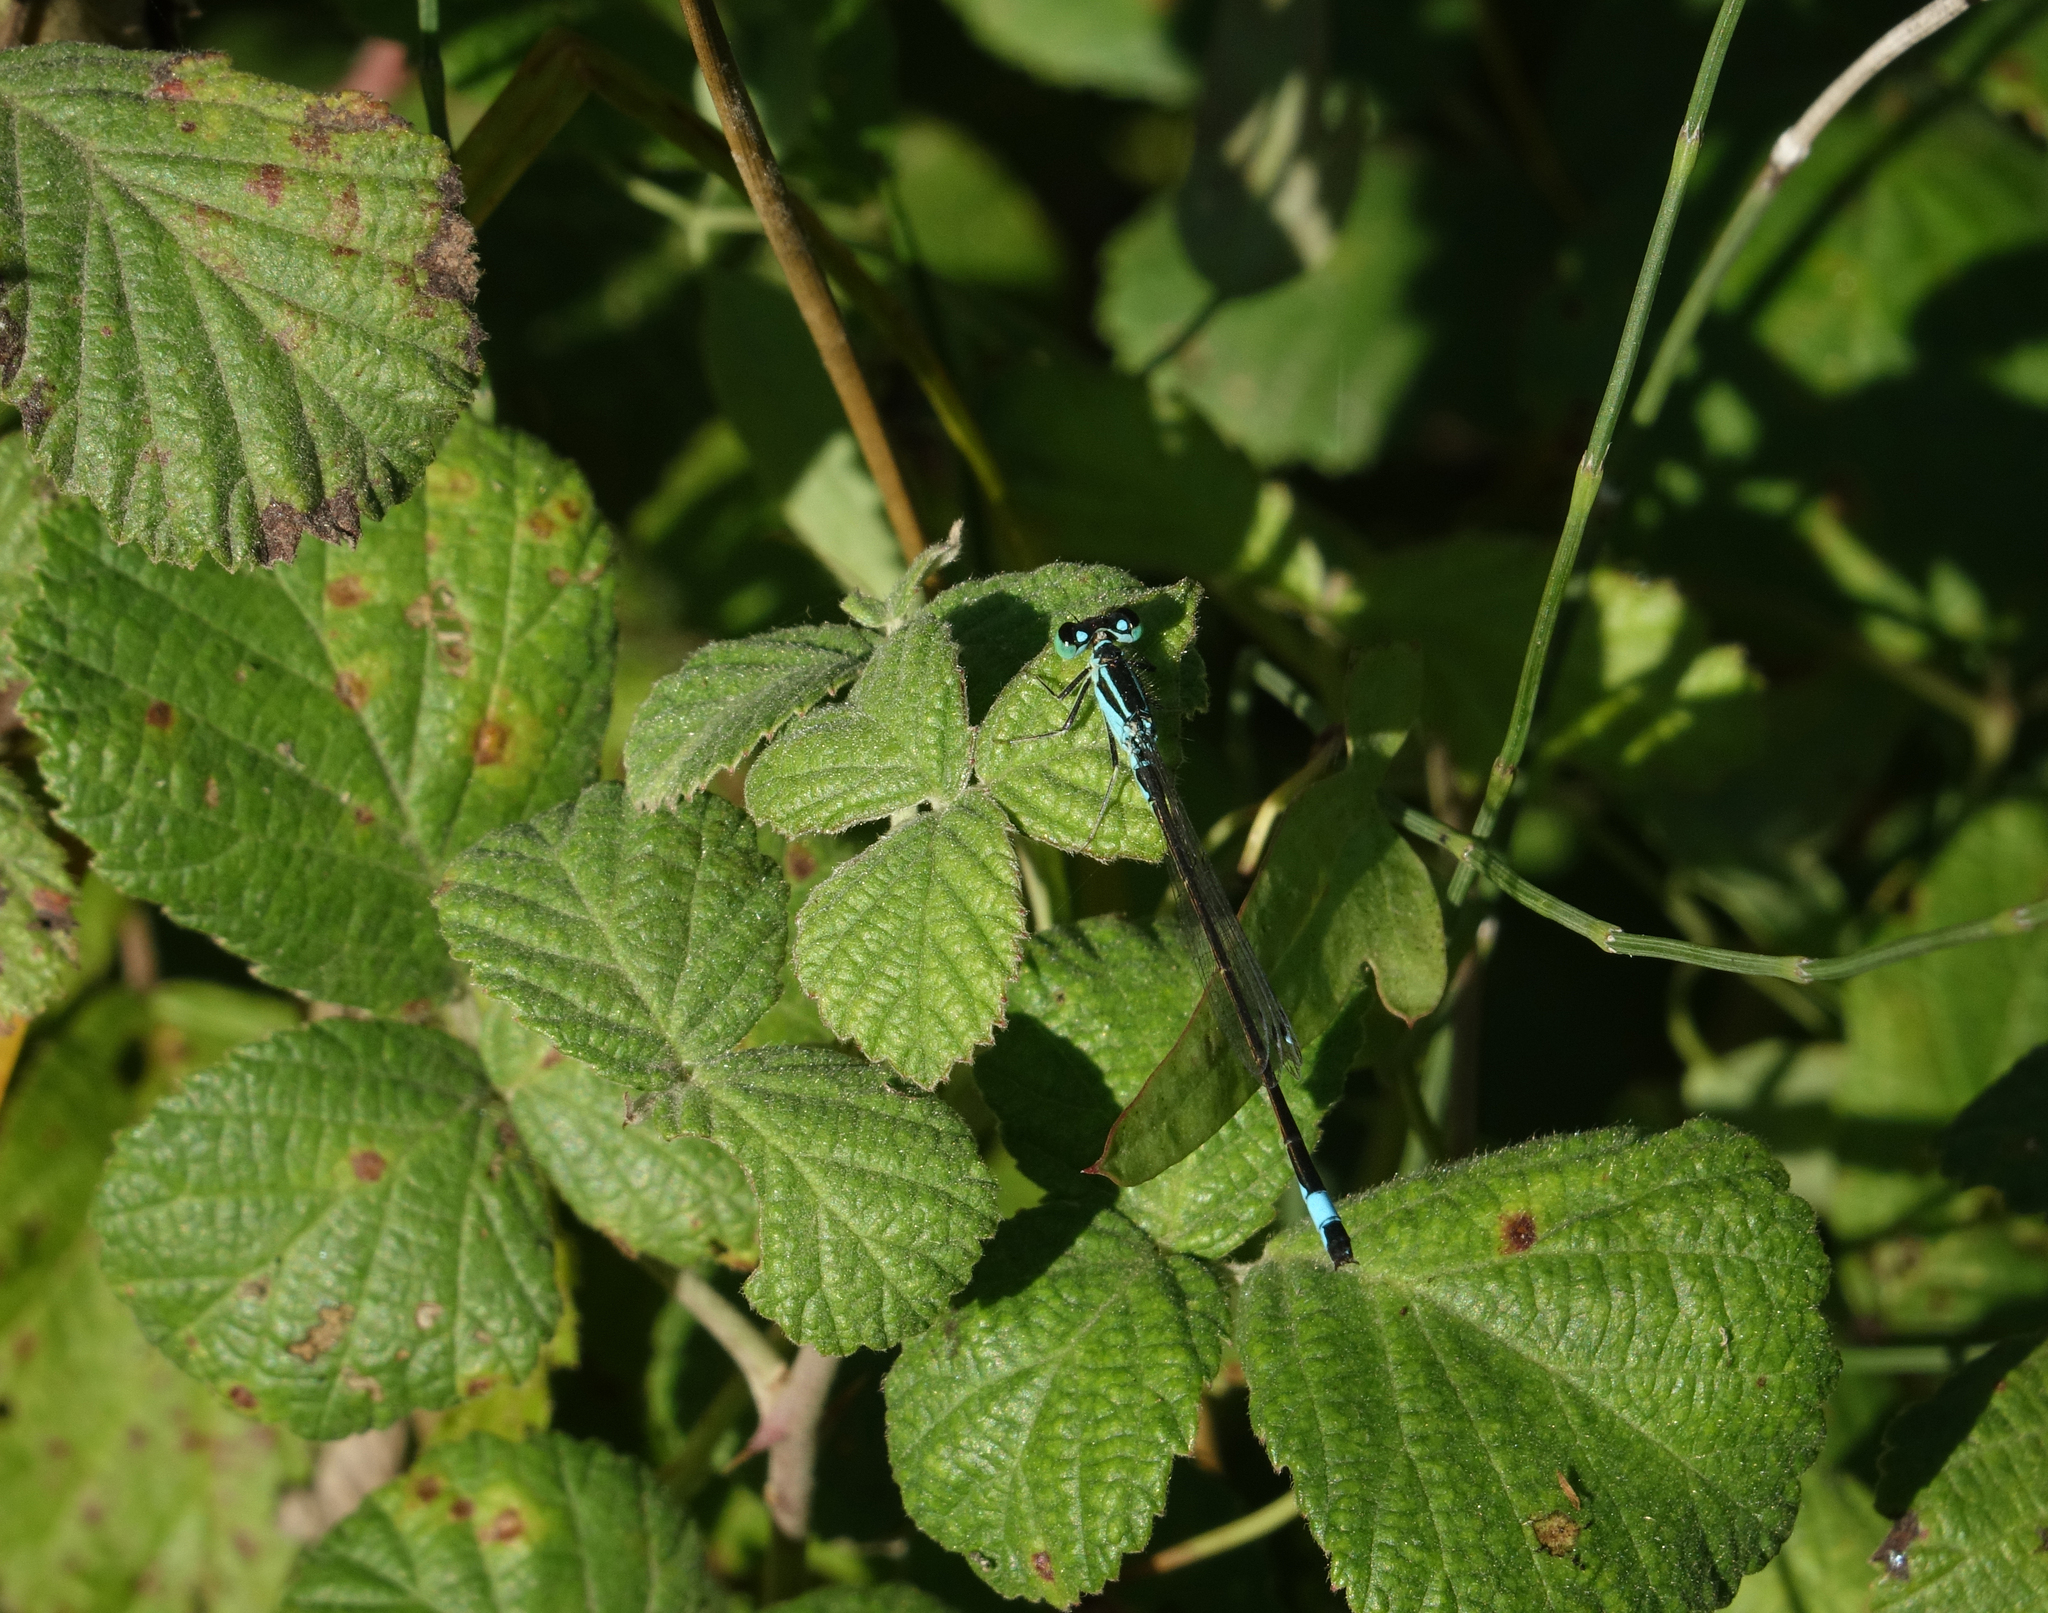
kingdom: Animalia
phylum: Arthropoda
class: Insecta
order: Odonata
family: Coenagrionidae
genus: Ischnura
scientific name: Ischnura elegans
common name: Blue-tailed damselfly
